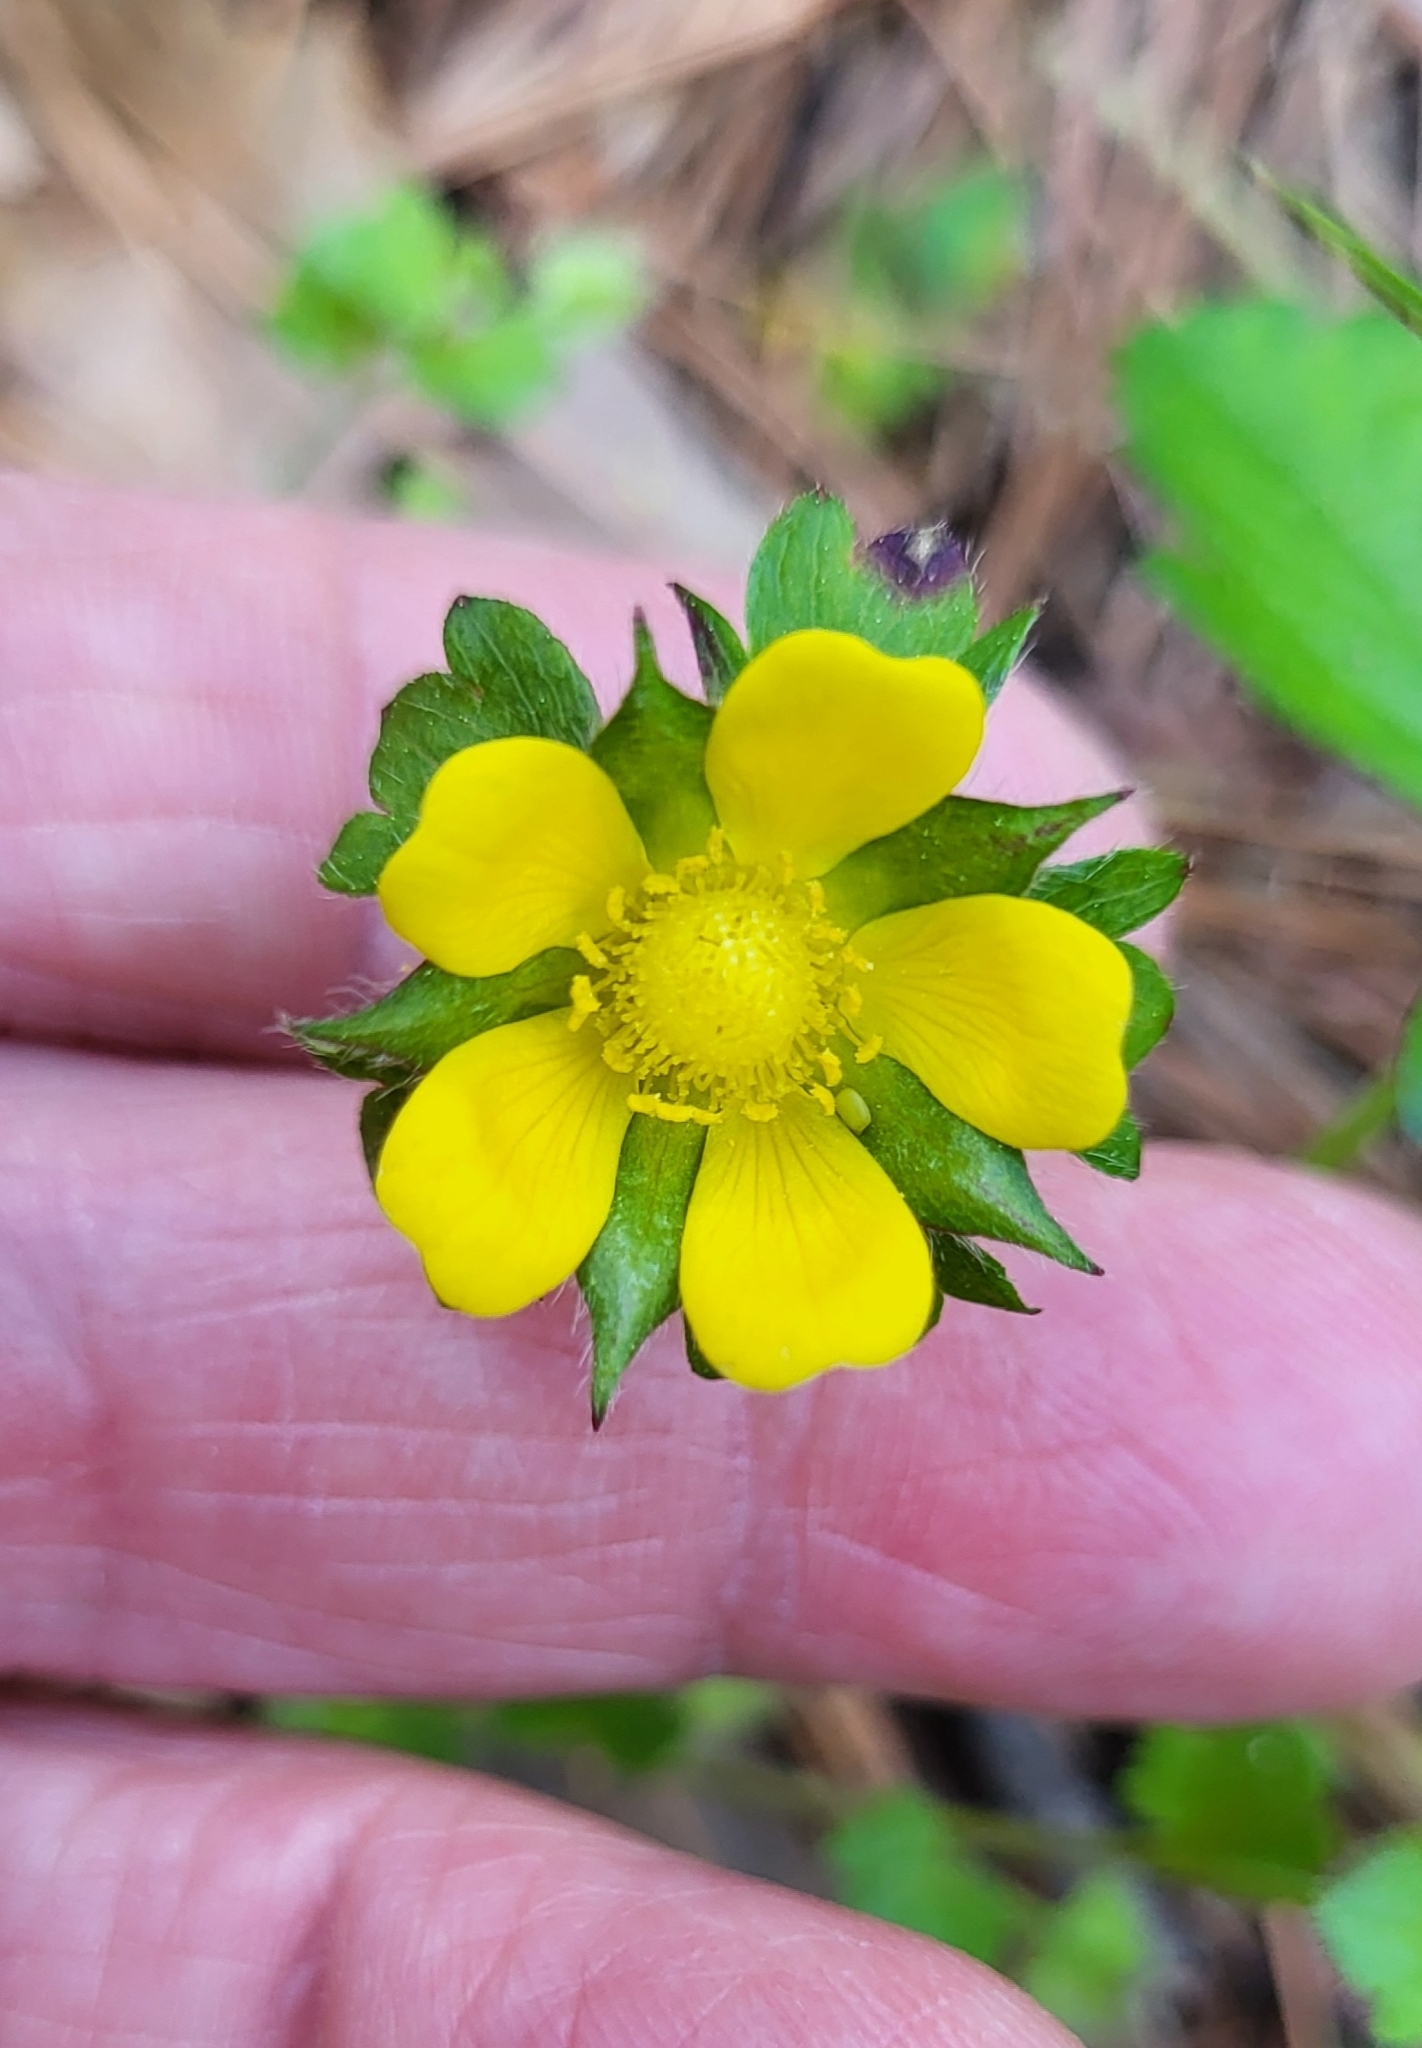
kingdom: Plantae
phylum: Tracheophyta
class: Magnoliopsida
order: Rosales
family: Rosaceae
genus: Potentilla
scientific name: Potentilla indica
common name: Yellow-flowered strawberry
